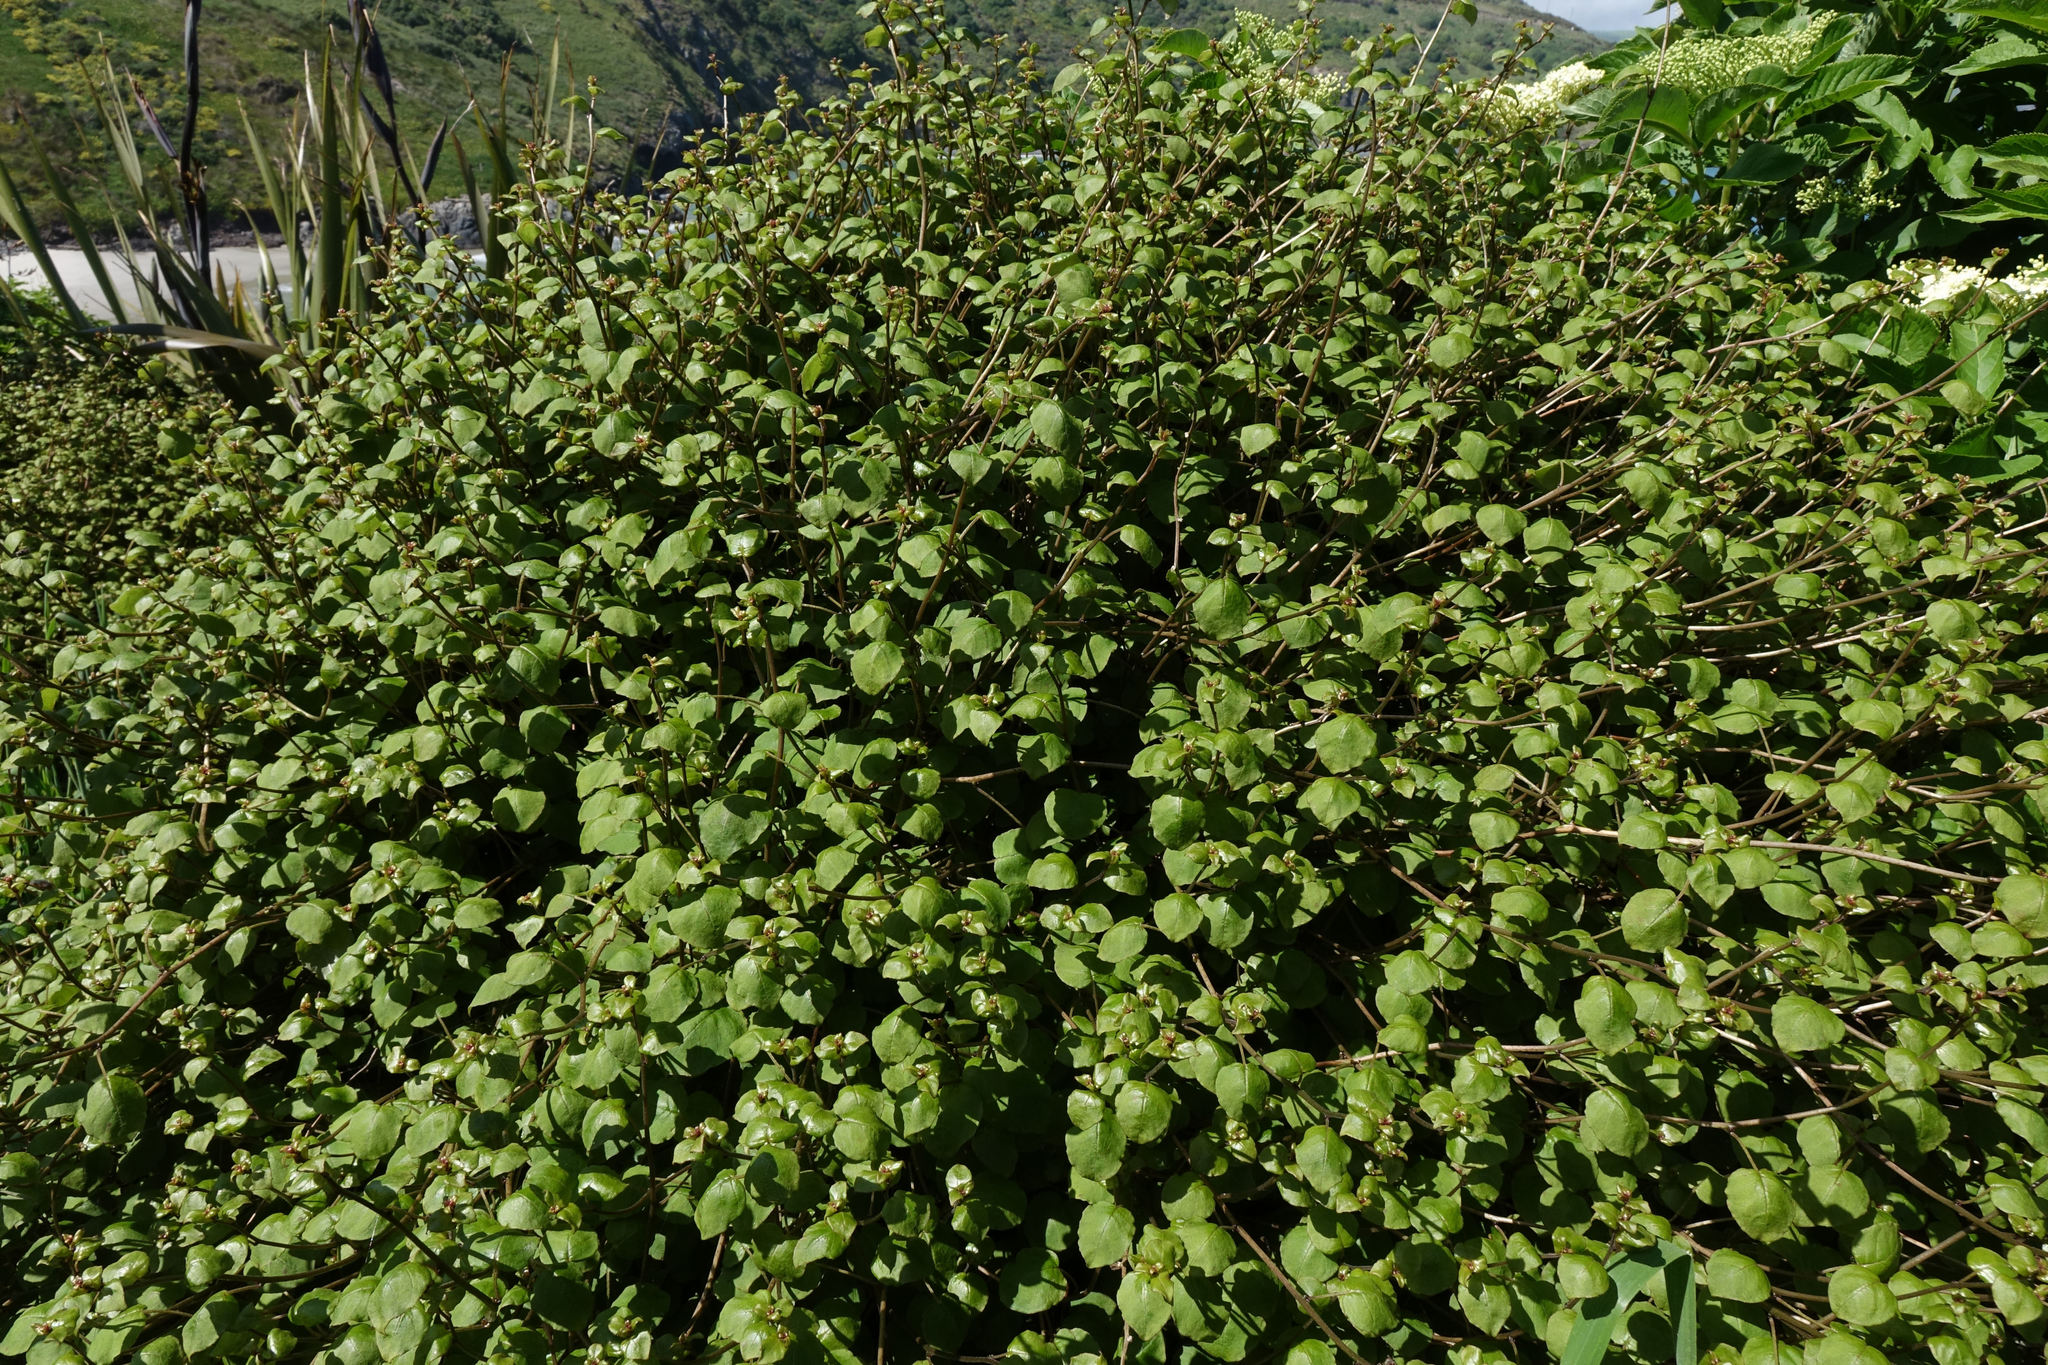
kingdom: Plantae
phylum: Tracheophyta
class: Magnoliopsida
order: Myrtales
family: Onagraceae
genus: Fuchsia
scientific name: Fuchsia perscandens
